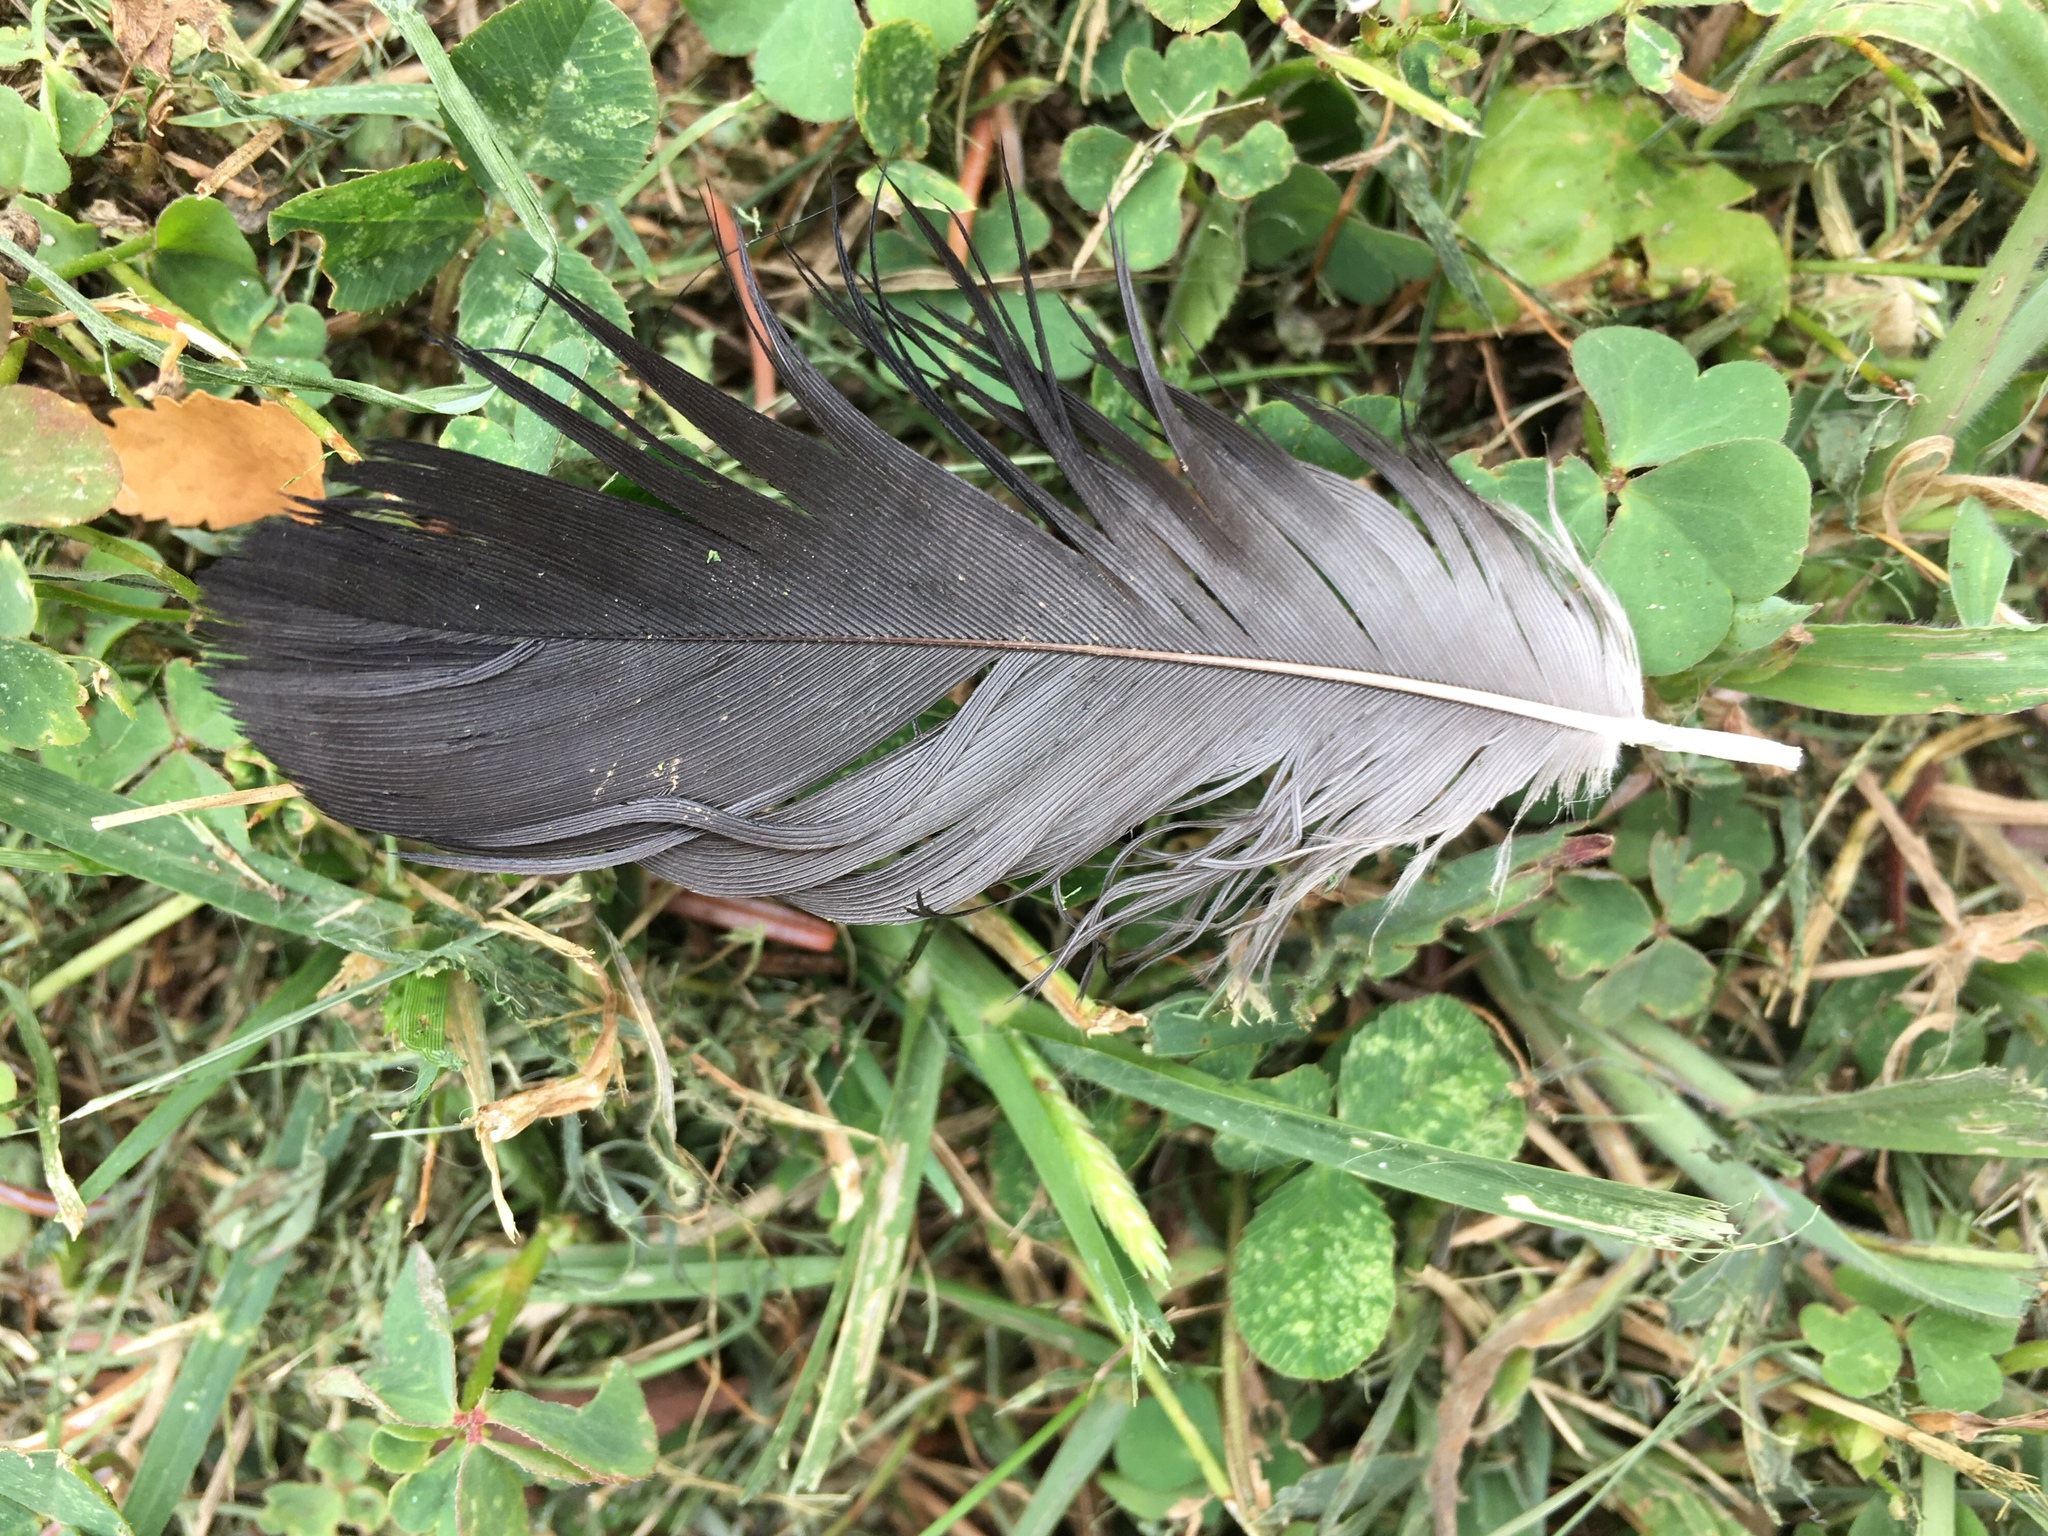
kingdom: Animalia
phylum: Chordata
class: Aves
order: Passeriformes
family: Corvidae
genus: Corvus
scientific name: Corvus brachyrhynchos
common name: American crow
